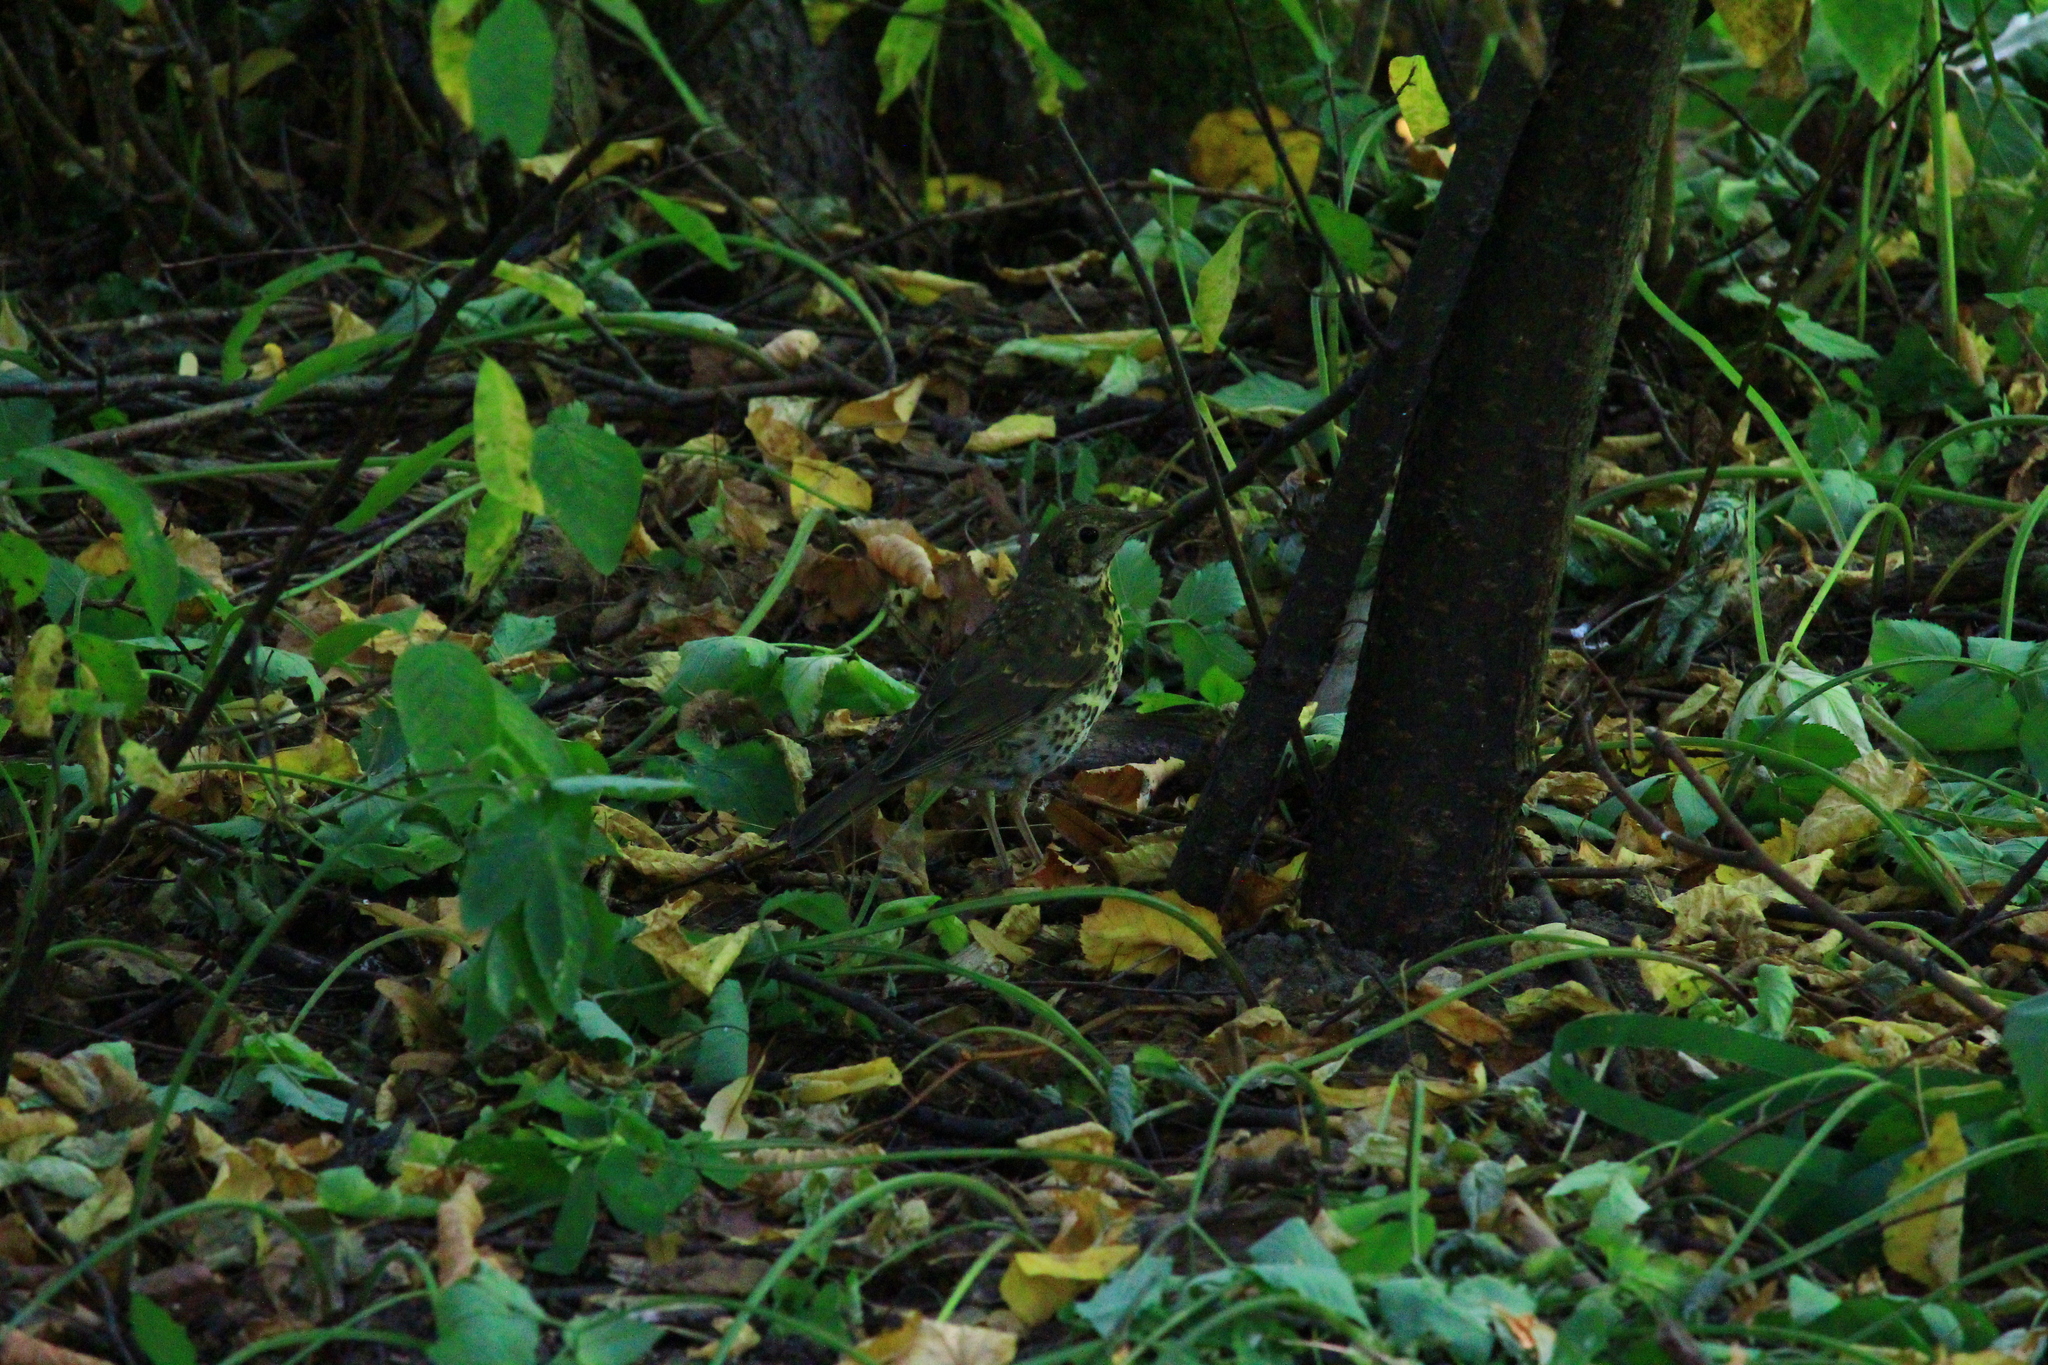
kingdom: Animalia
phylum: Chordata
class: Aves
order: Passeriformes
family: Turdidae
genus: Turdus
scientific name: Turdus philomelos
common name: Song thrush
